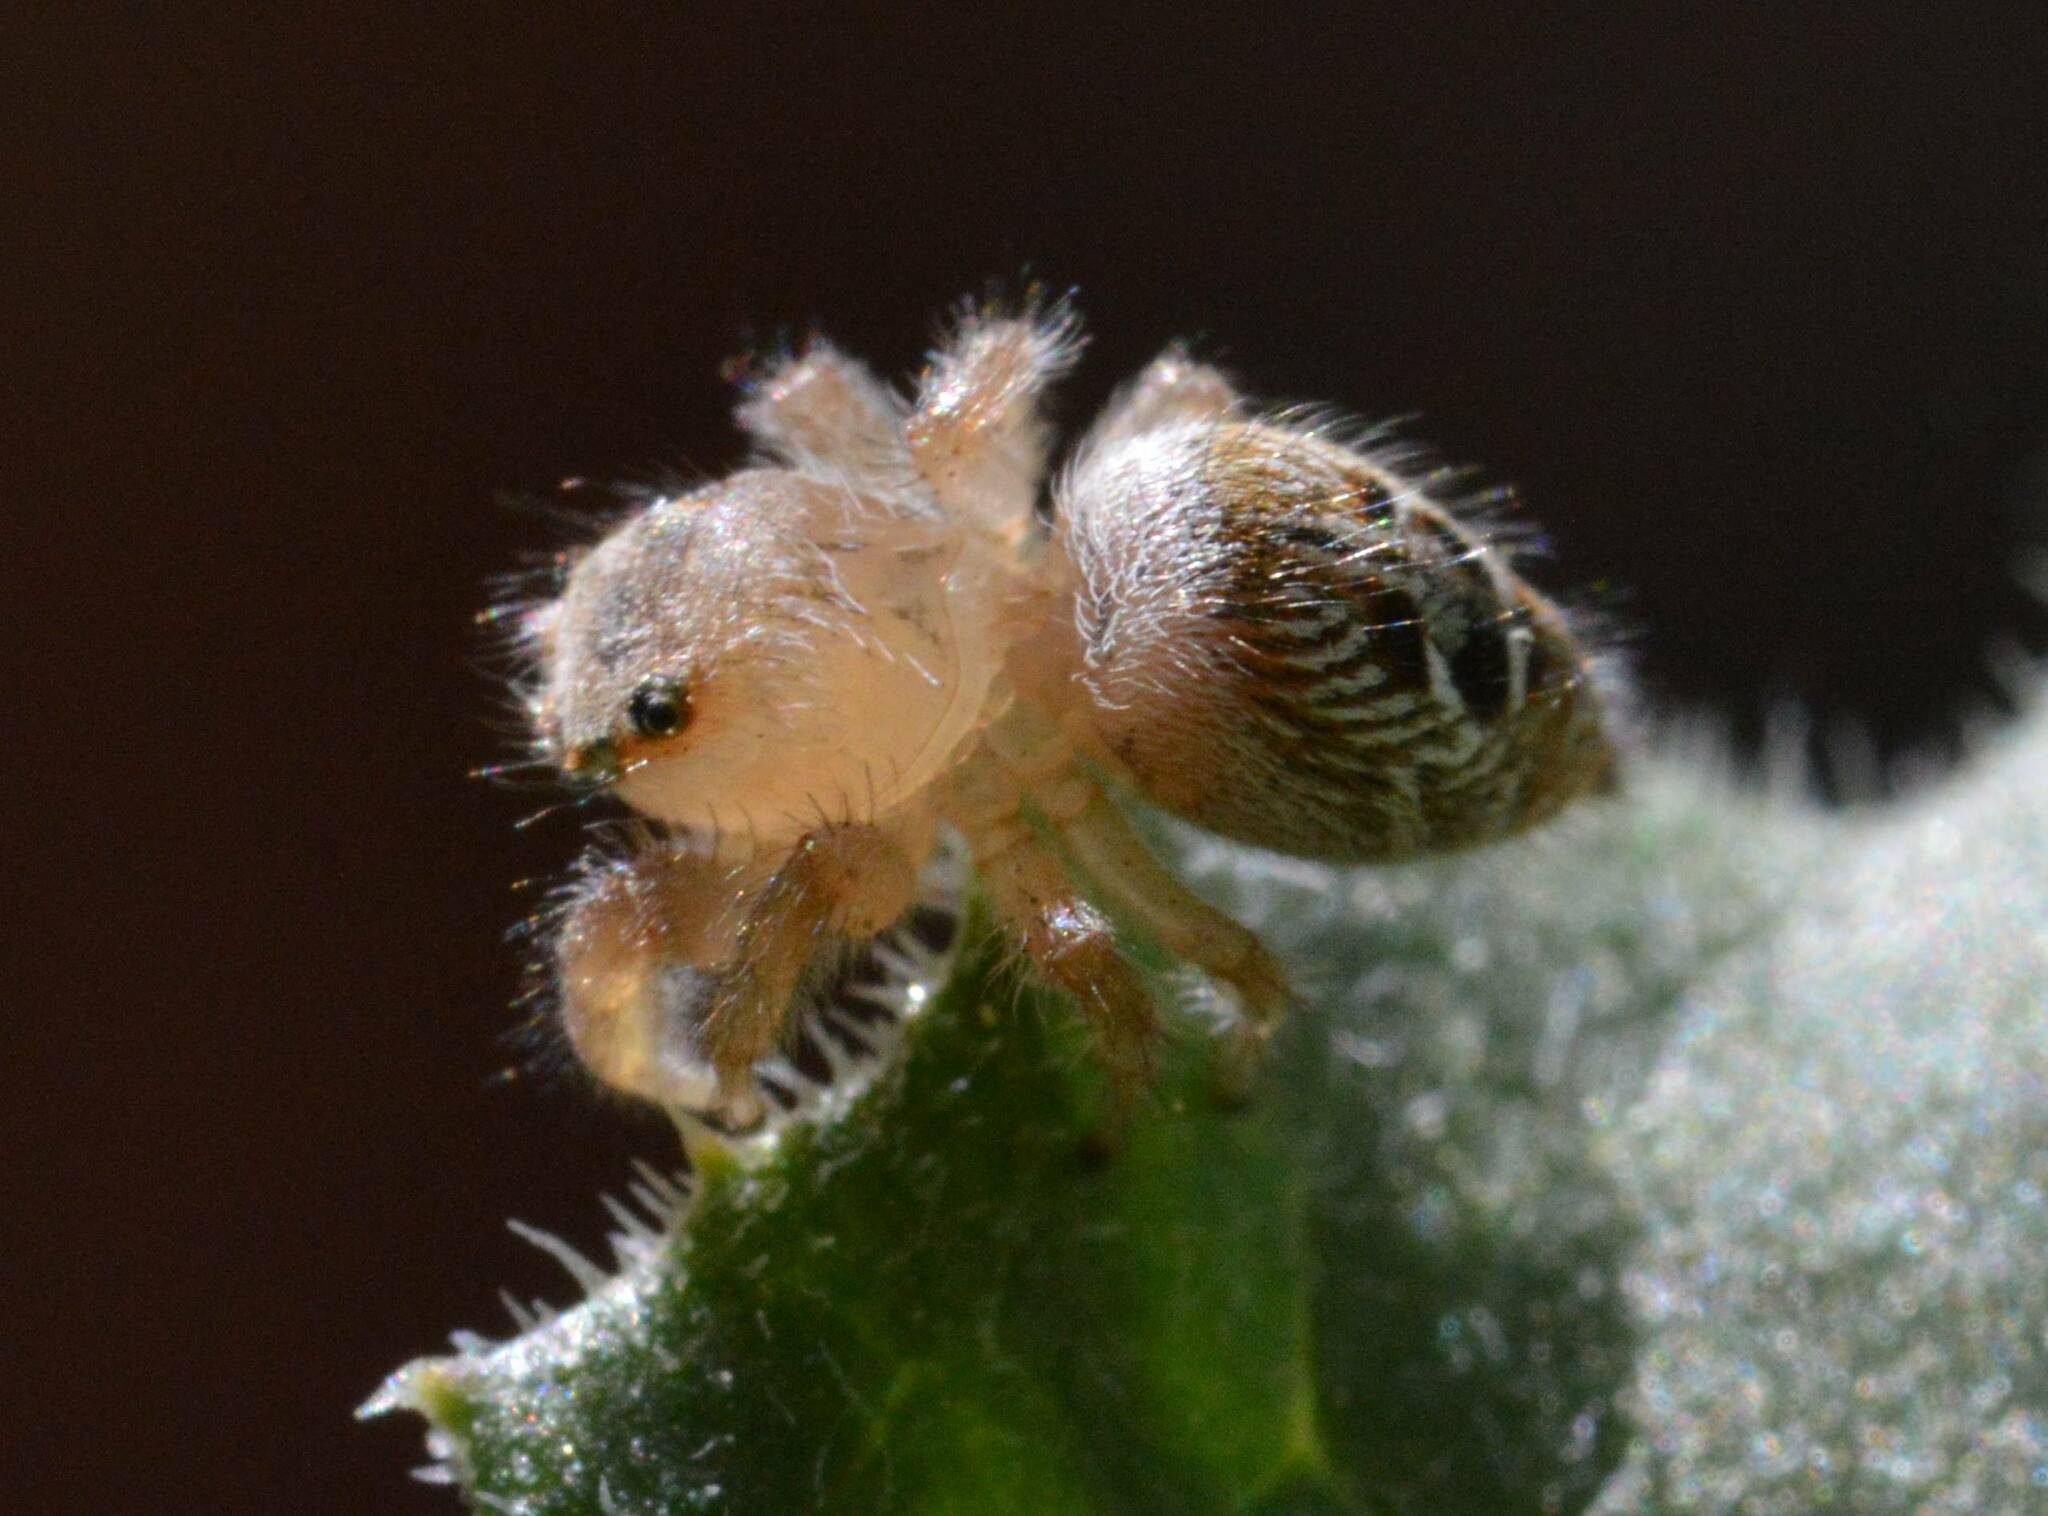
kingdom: Animalia
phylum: Arthropoda
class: Arachnida
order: Araneae
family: Salticidae
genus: Thyene
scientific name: Thyene imperialis
